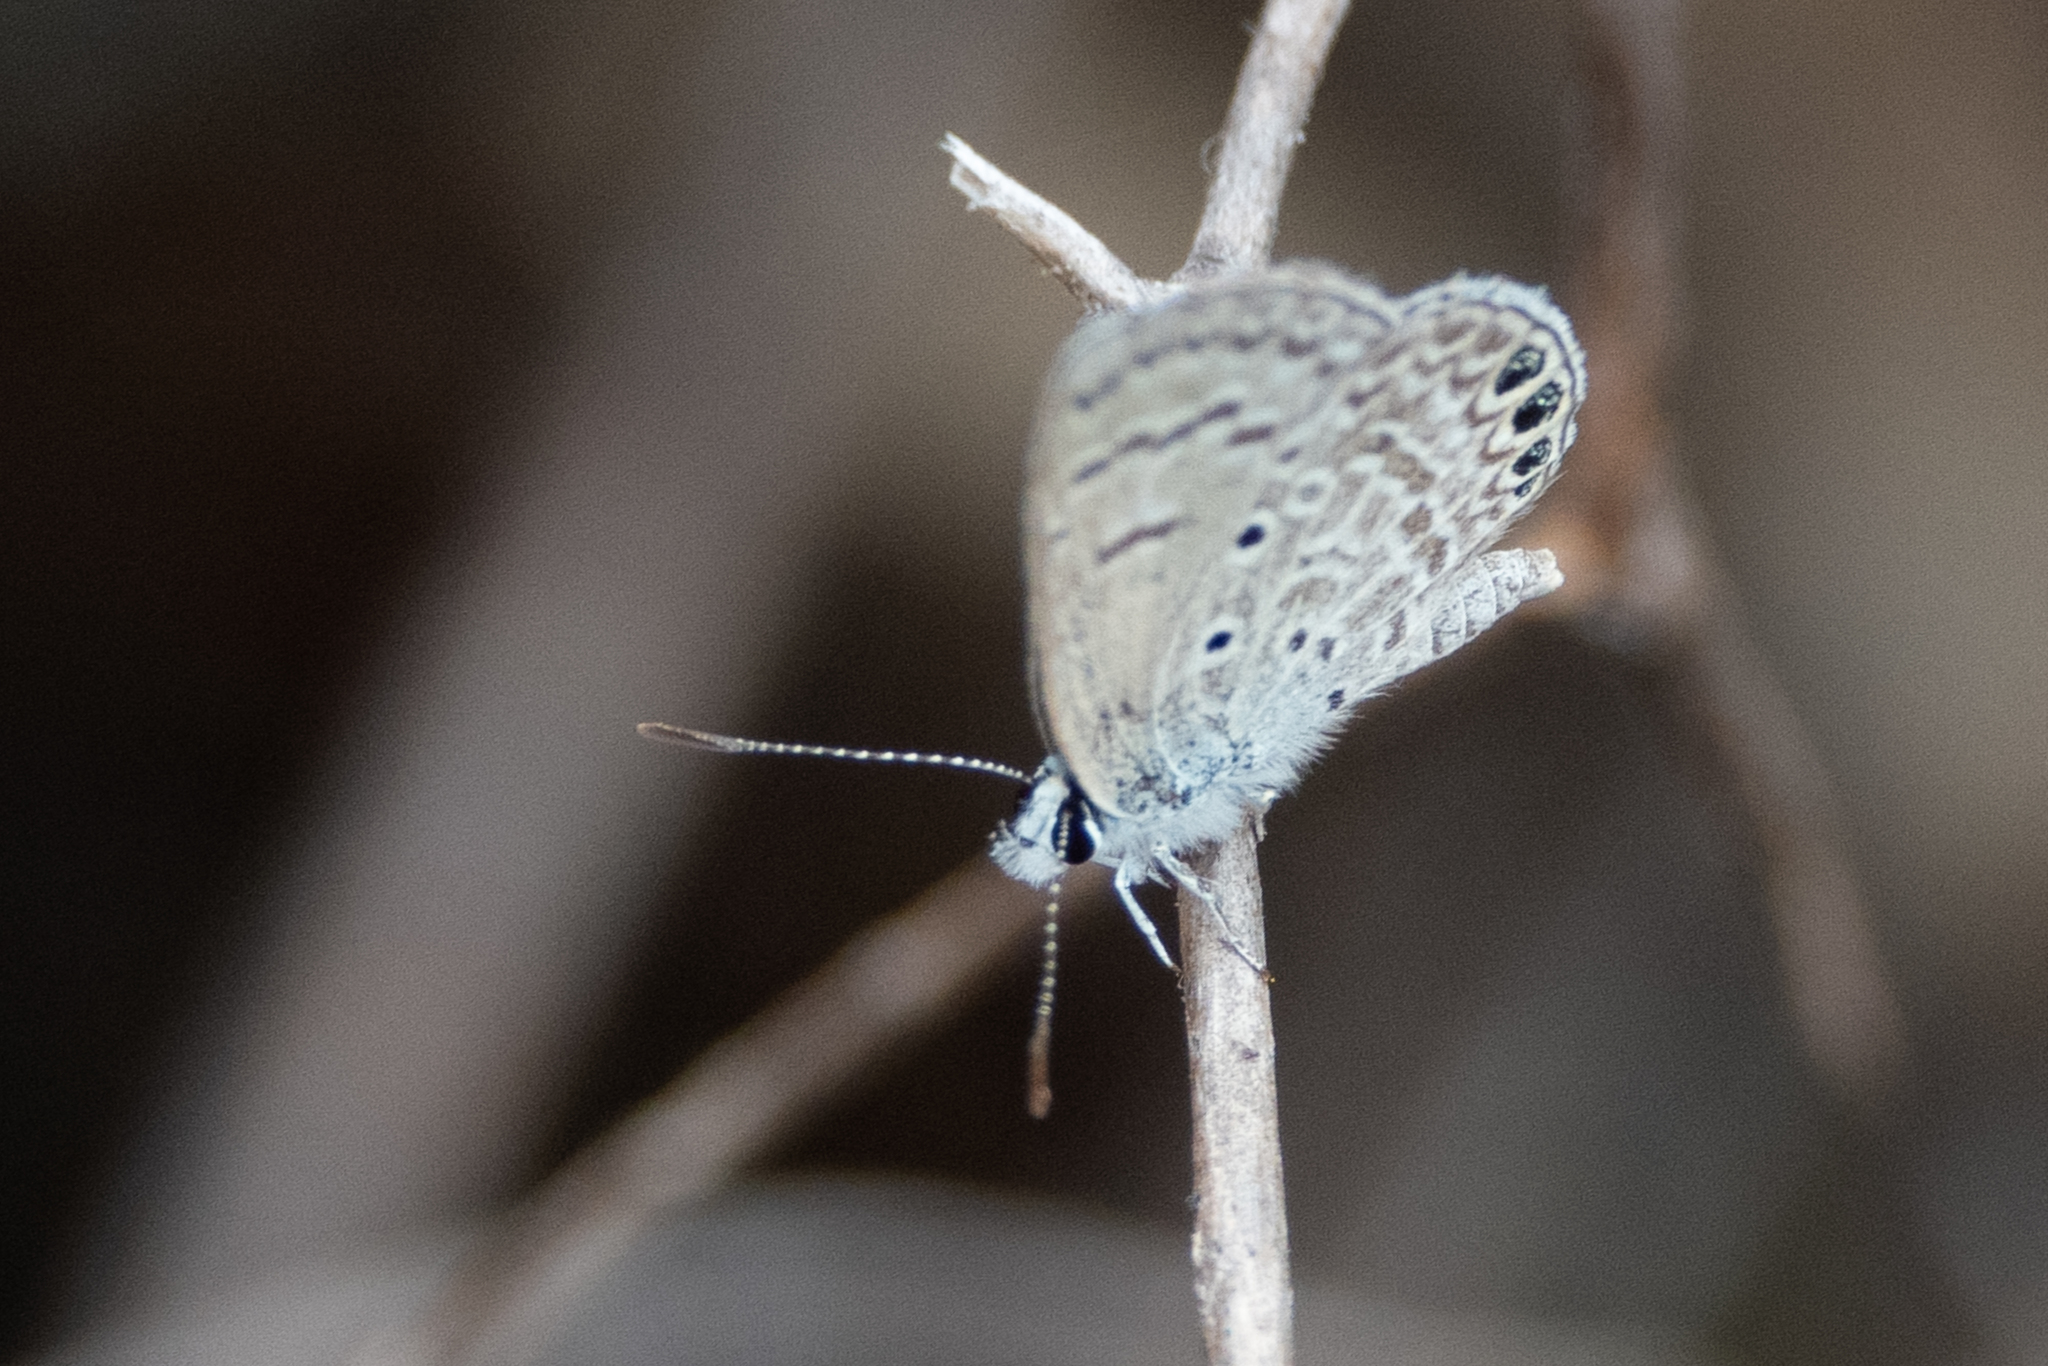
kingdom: Animalia
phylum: Arthropoda
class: Insecta
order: Lepidoptera
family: Lycaenidae
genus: Hemiargus
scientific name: Hemiargus ramon
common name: Ramon blue
